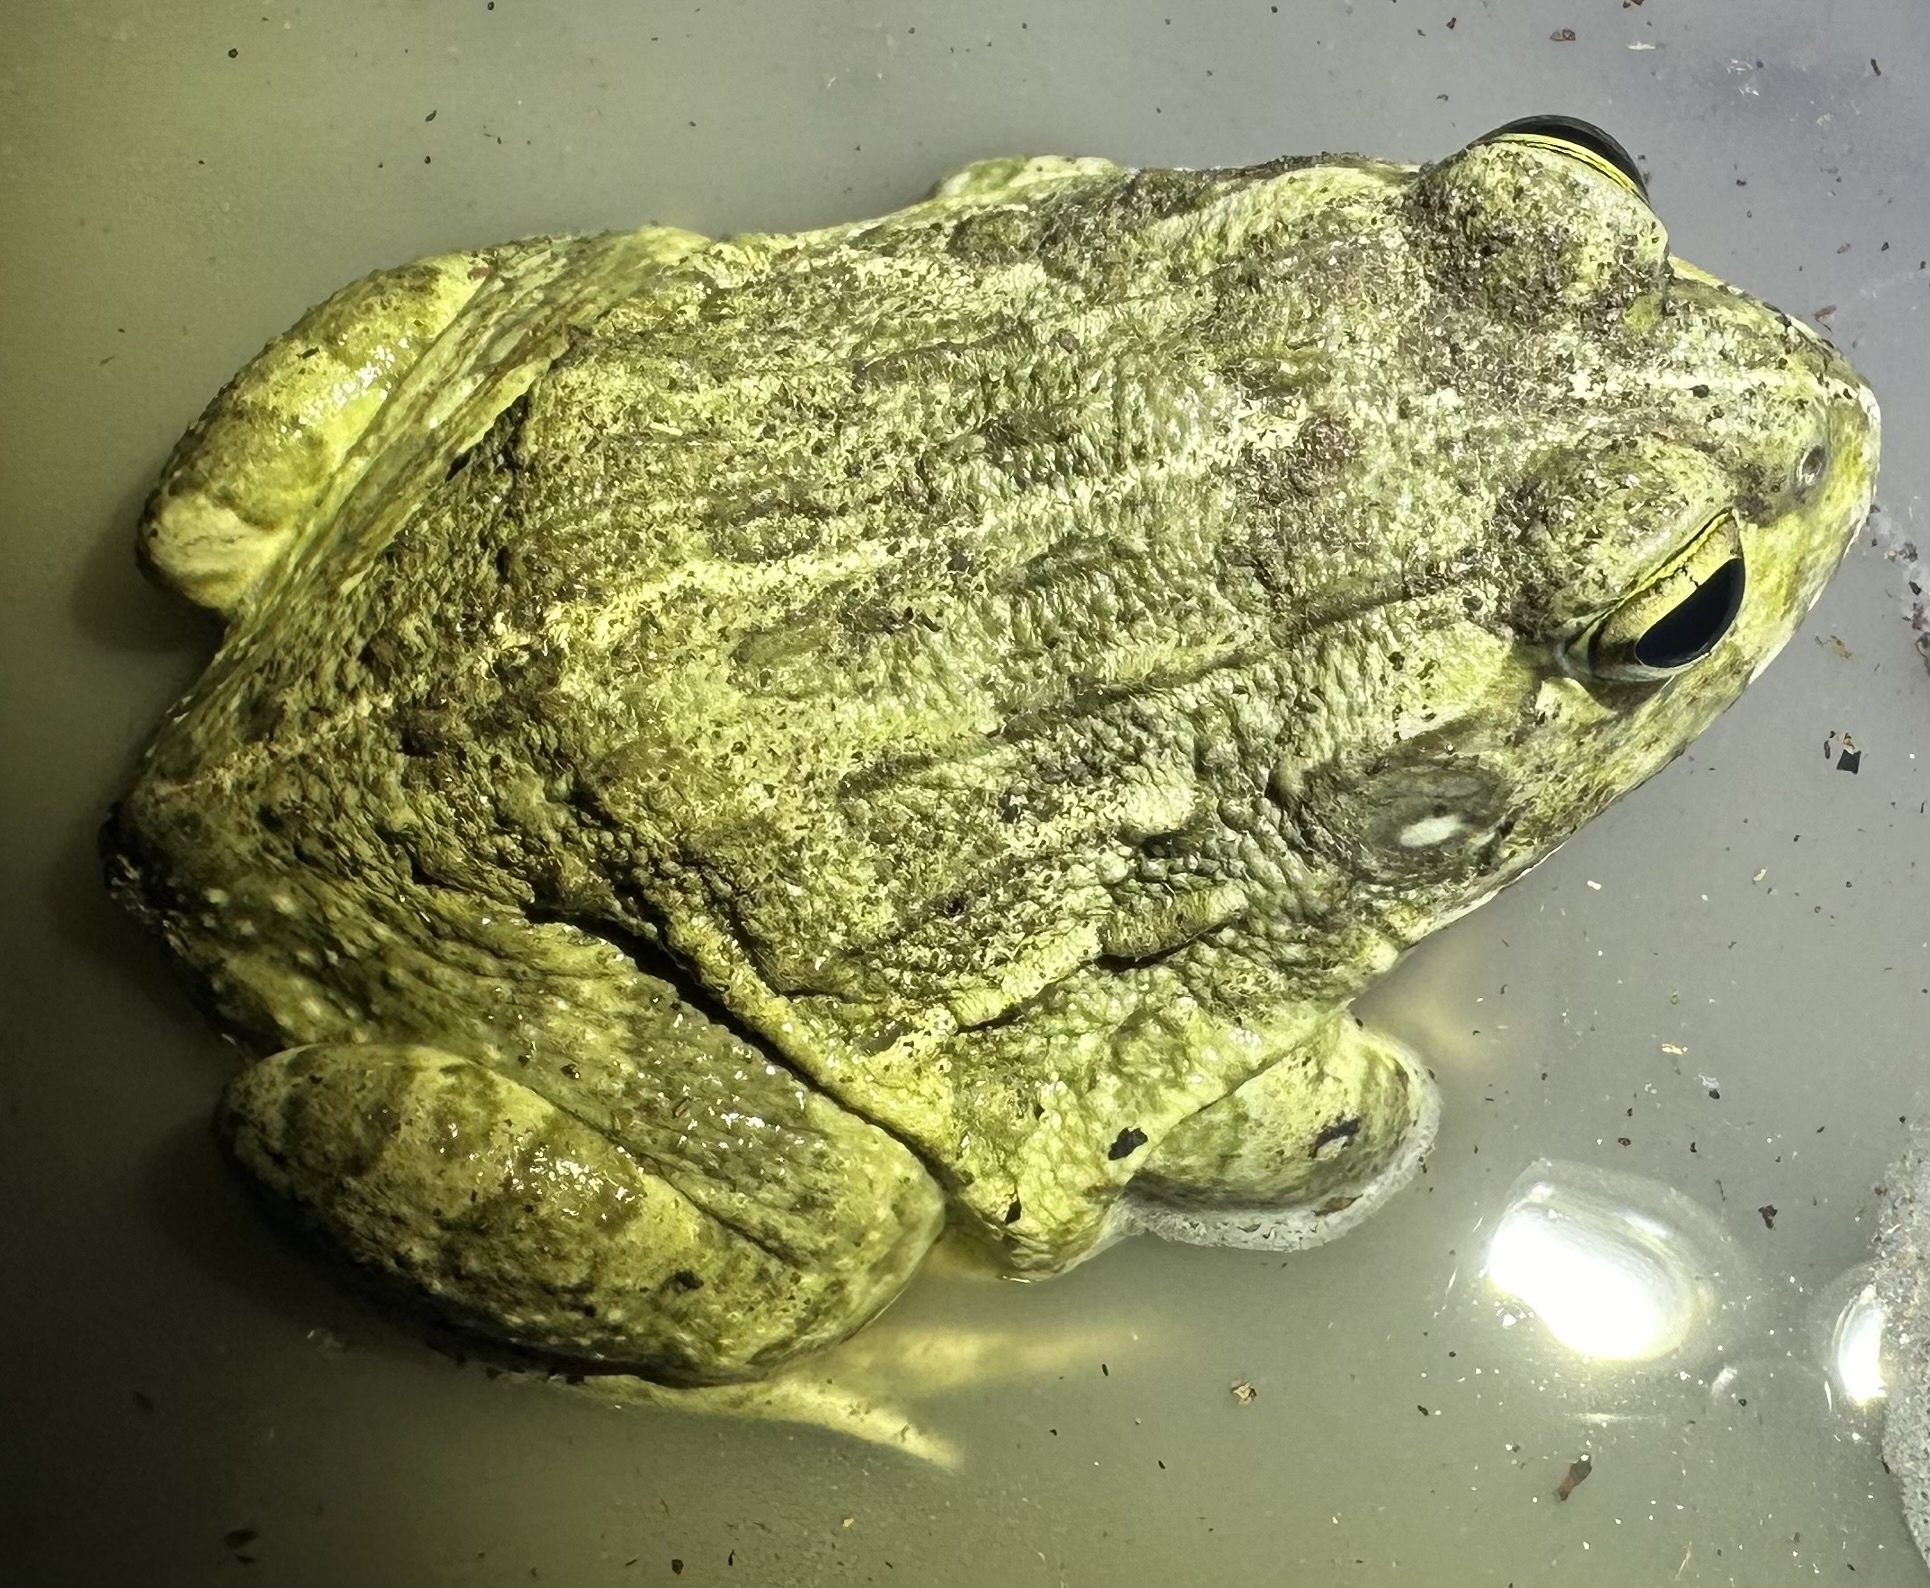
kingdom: Animalia
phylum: Chordata
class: Amphibia
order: Anura
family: Pyxicephalidae
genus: Pyxicephalus
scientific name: Pyxicephalus edulis
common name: Peter's bullfrog
